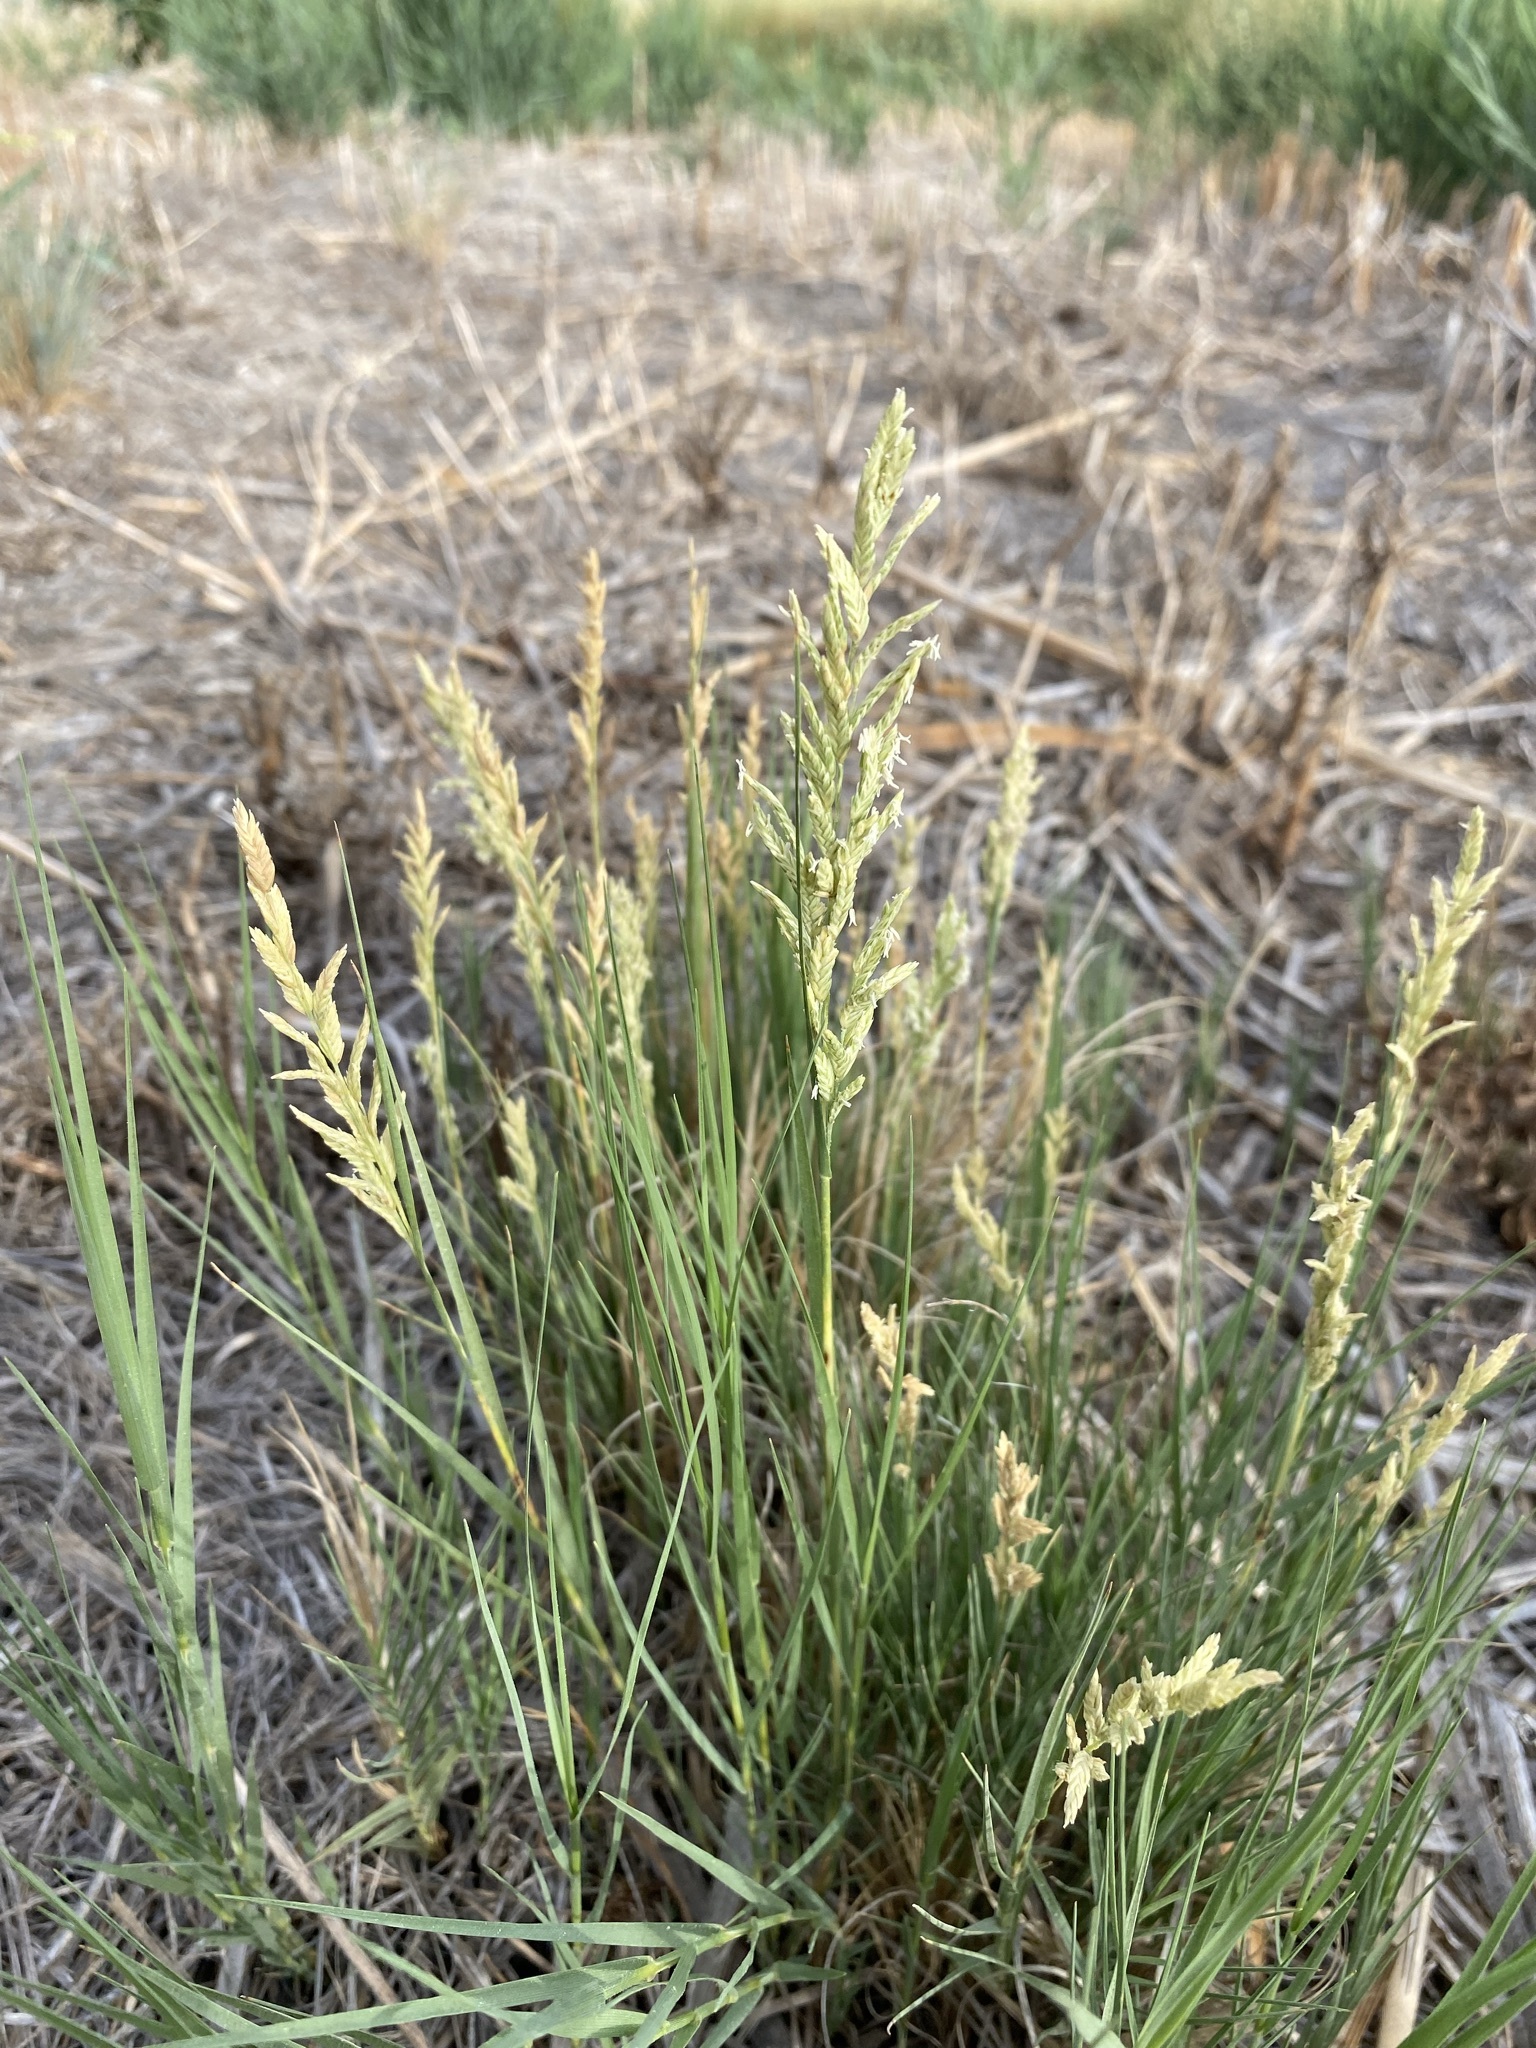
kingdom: Plantae
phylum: Tracheophyta
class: Liliopsida
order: Poales
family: Poaceae
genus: Distichlis
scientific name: Distichlis spicata
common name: Saltgrass
